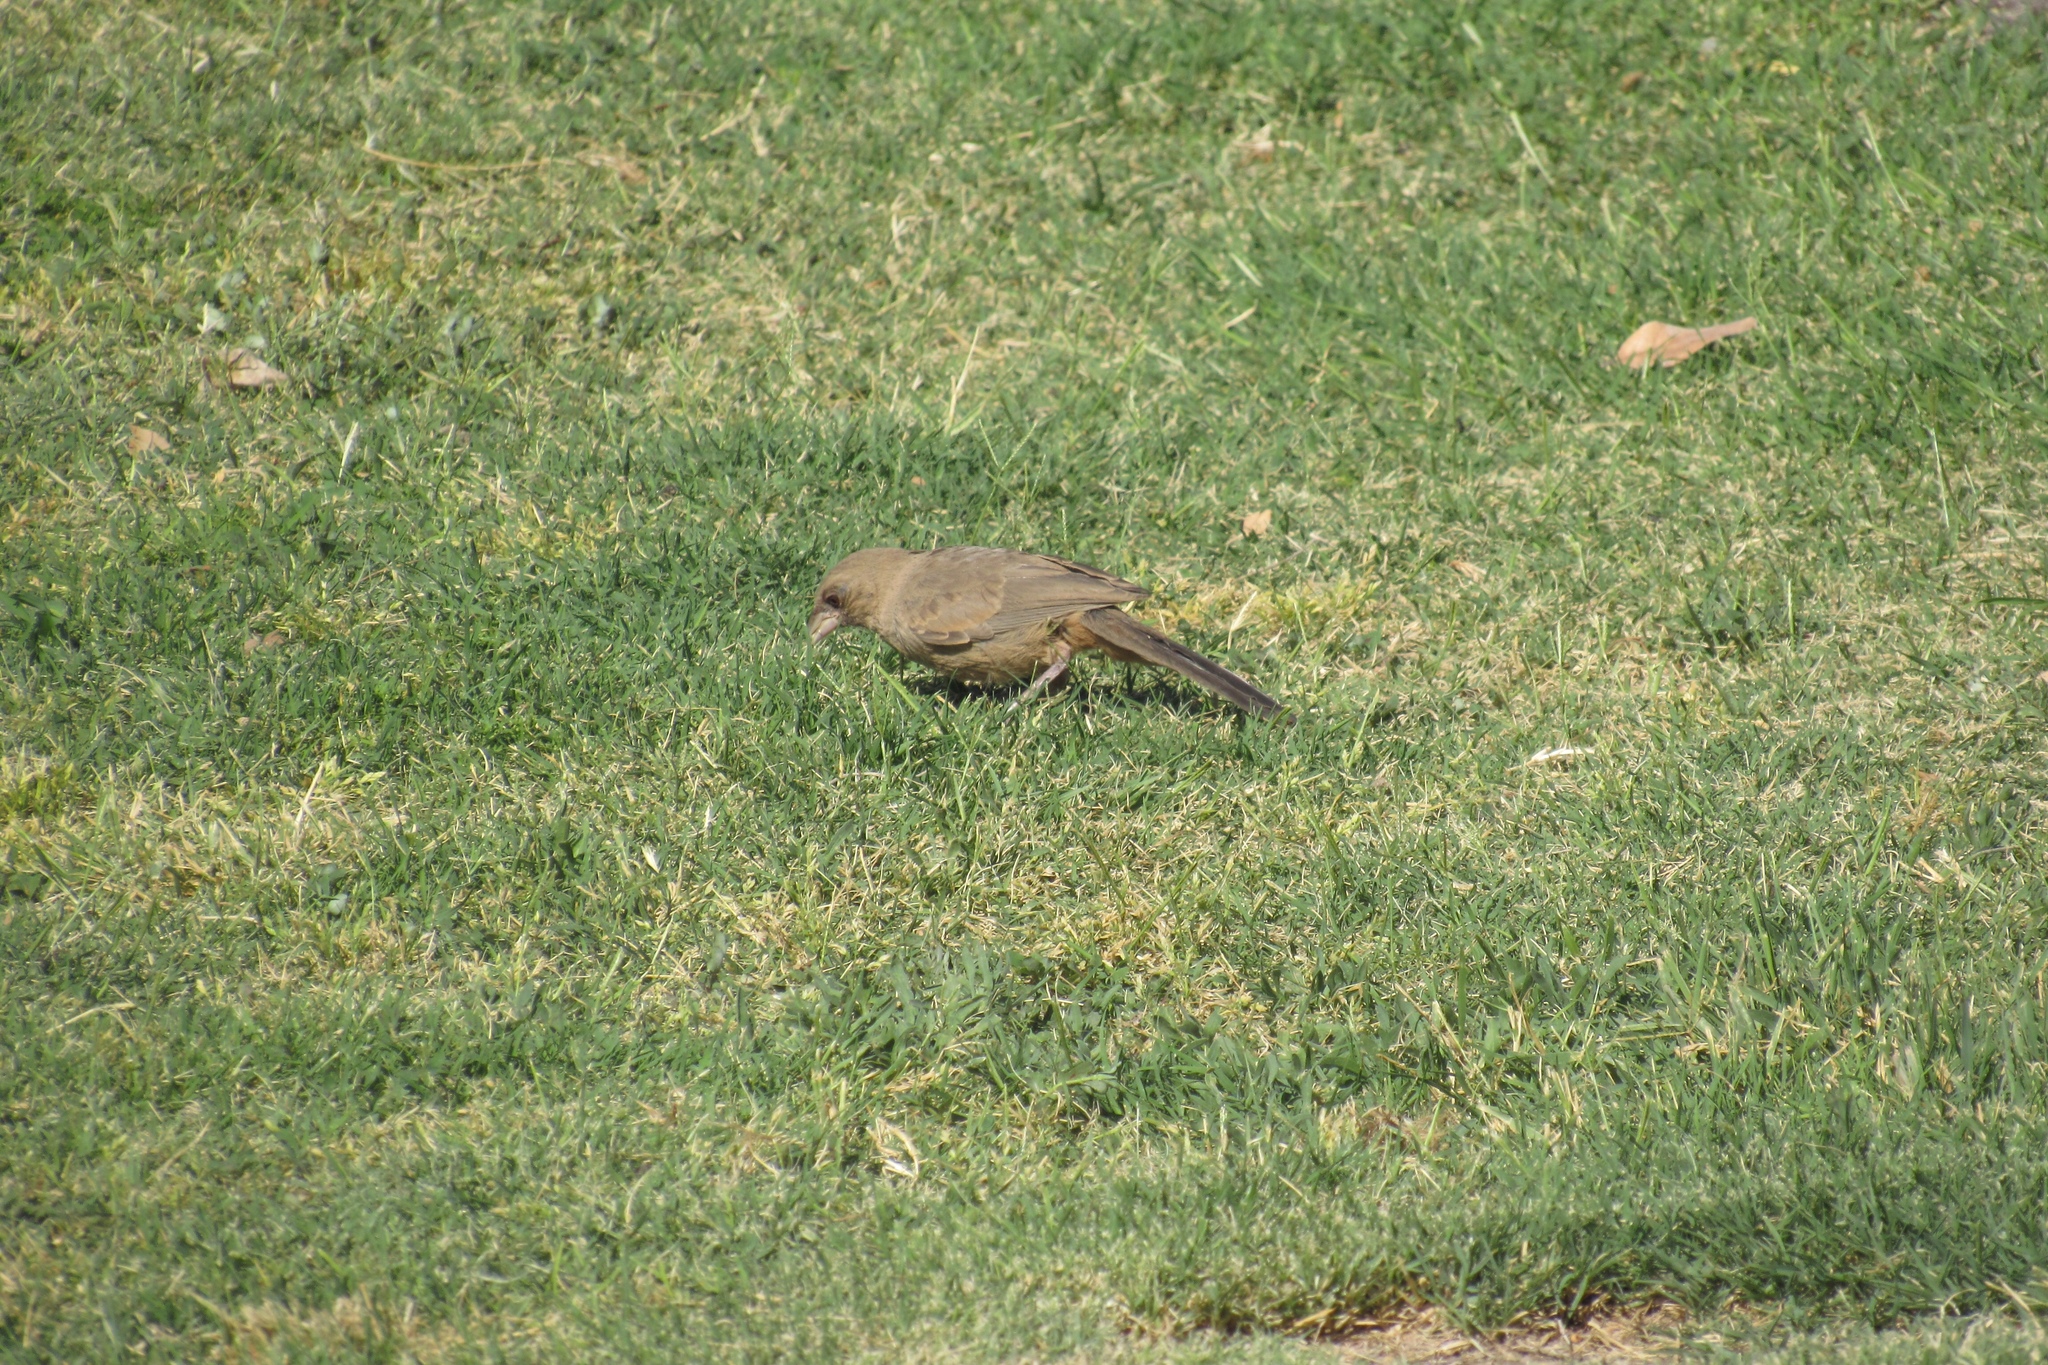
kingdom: Animalia
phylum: Chordata
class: Aves
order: Passeriformes
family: Passerellidae
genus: Melozone
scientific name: Melozone aberti
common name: Abert's towhee
